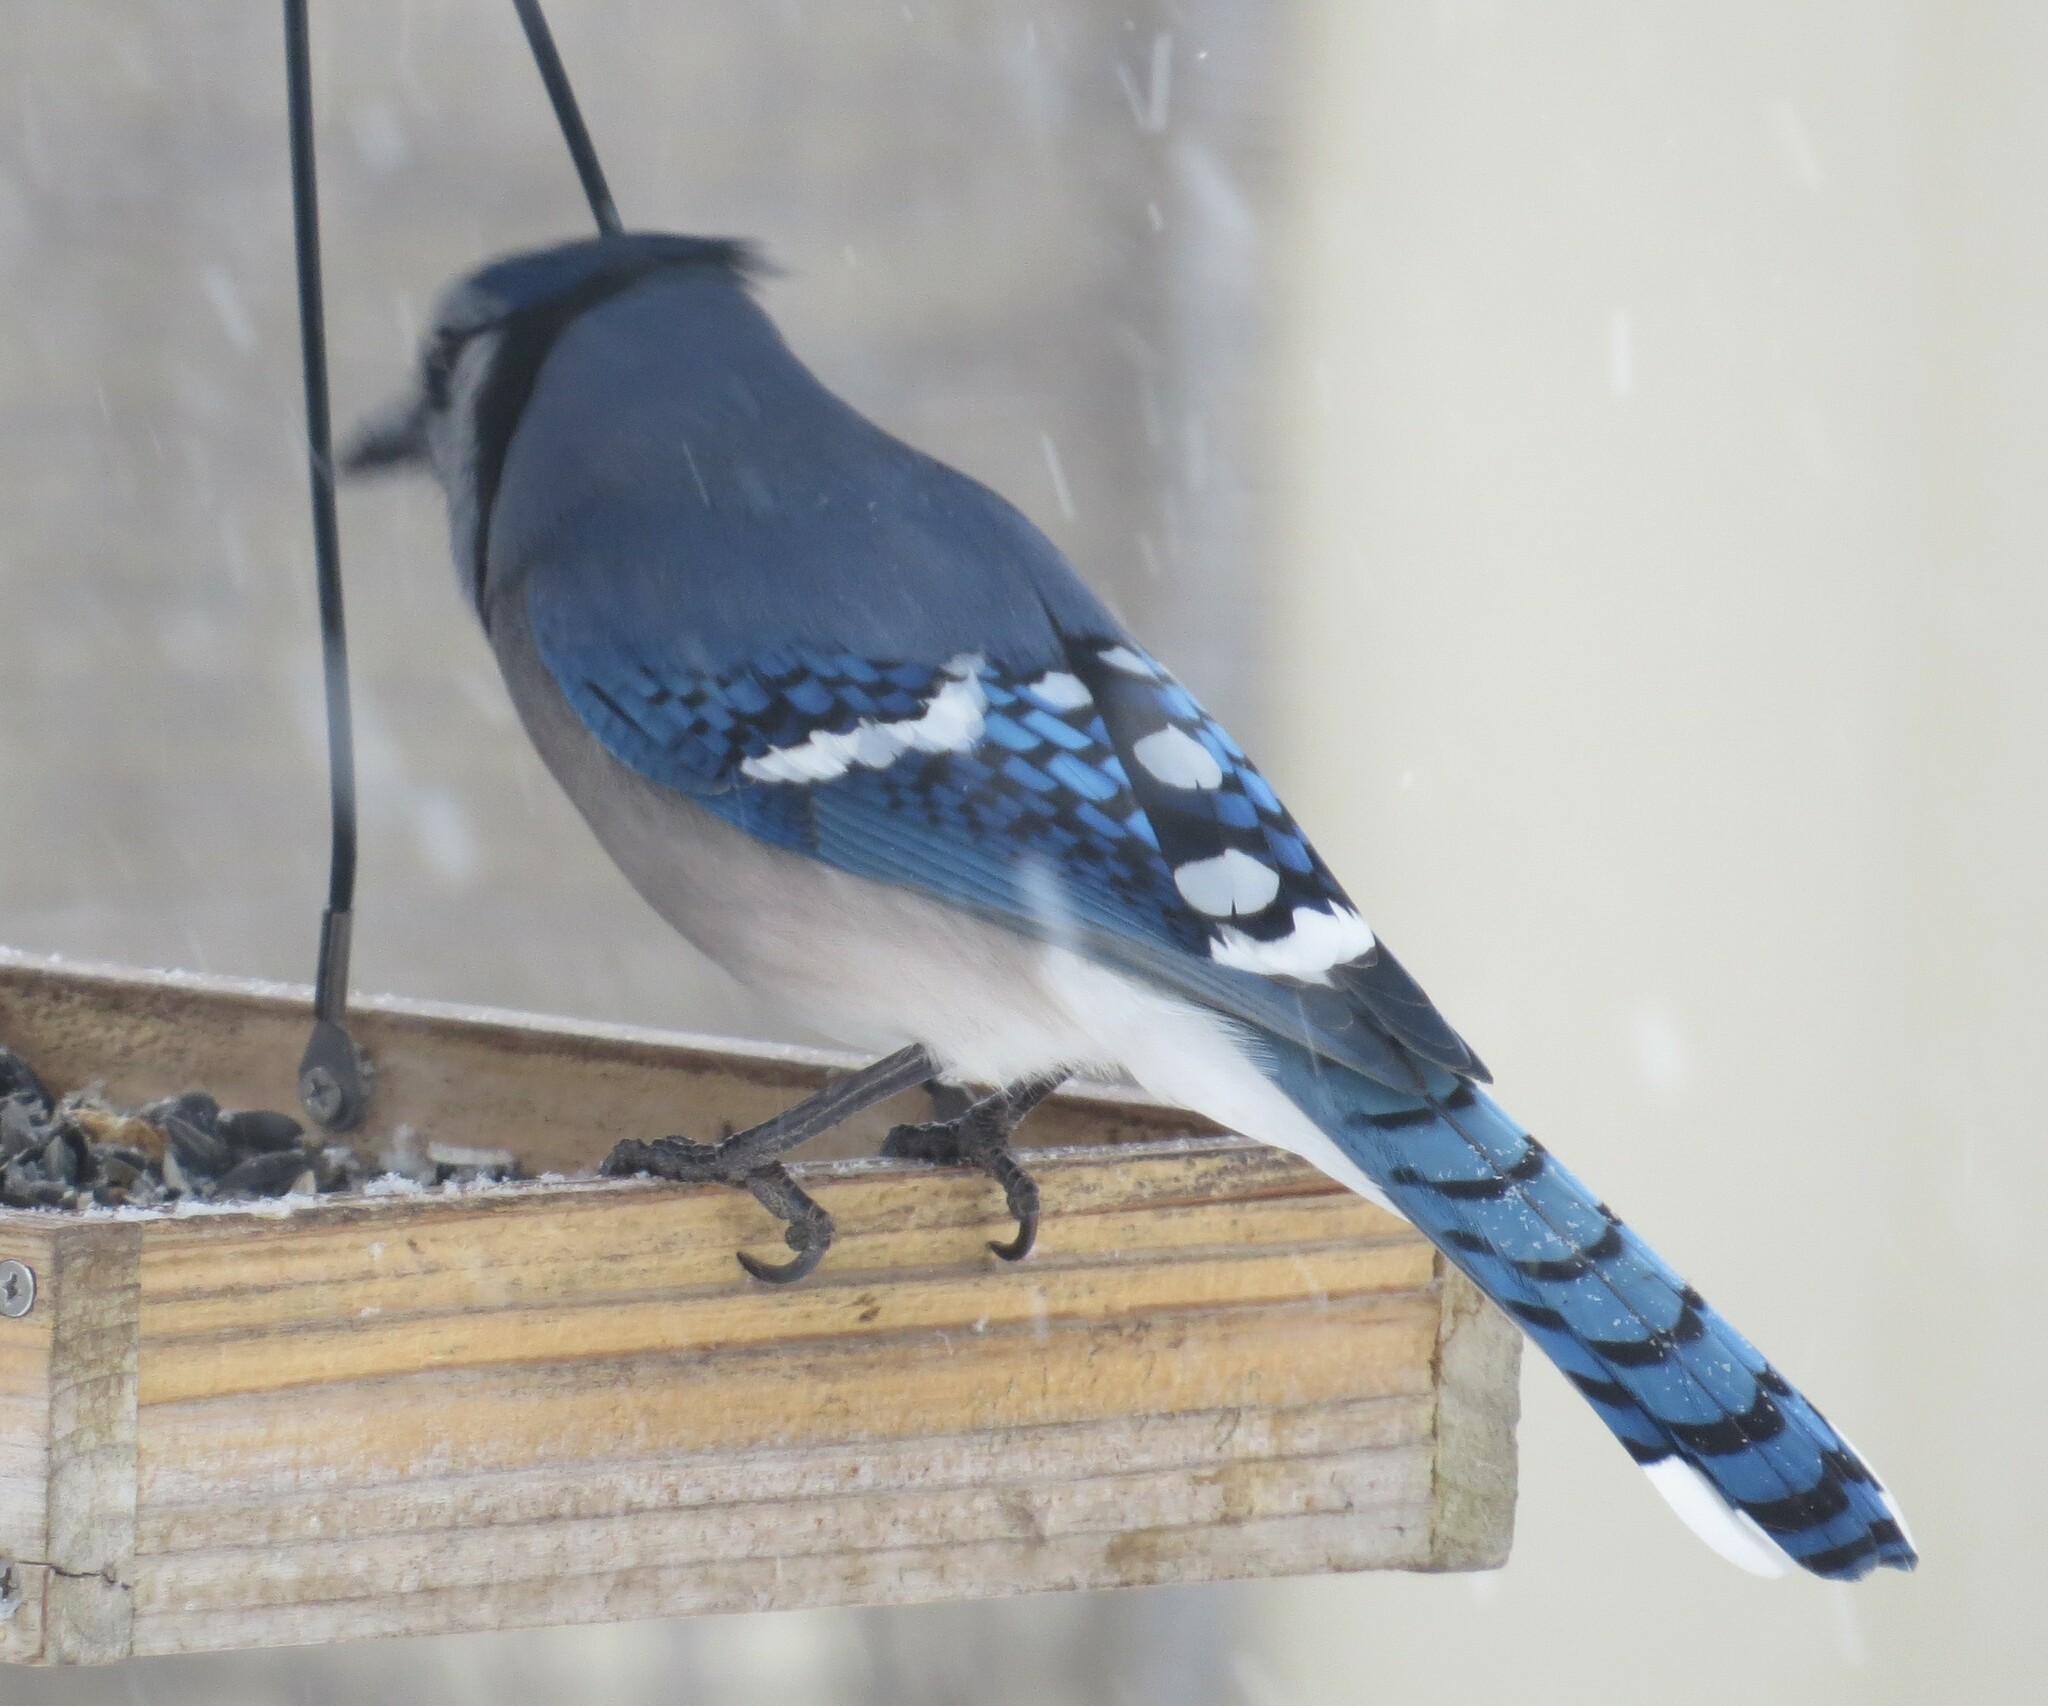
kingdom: Animalia
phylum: Chordata
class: Aves
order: Passeriformes
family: Corvidae
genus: Cyanocitta
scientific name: Cyanocitta cristata
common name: Blue jay
